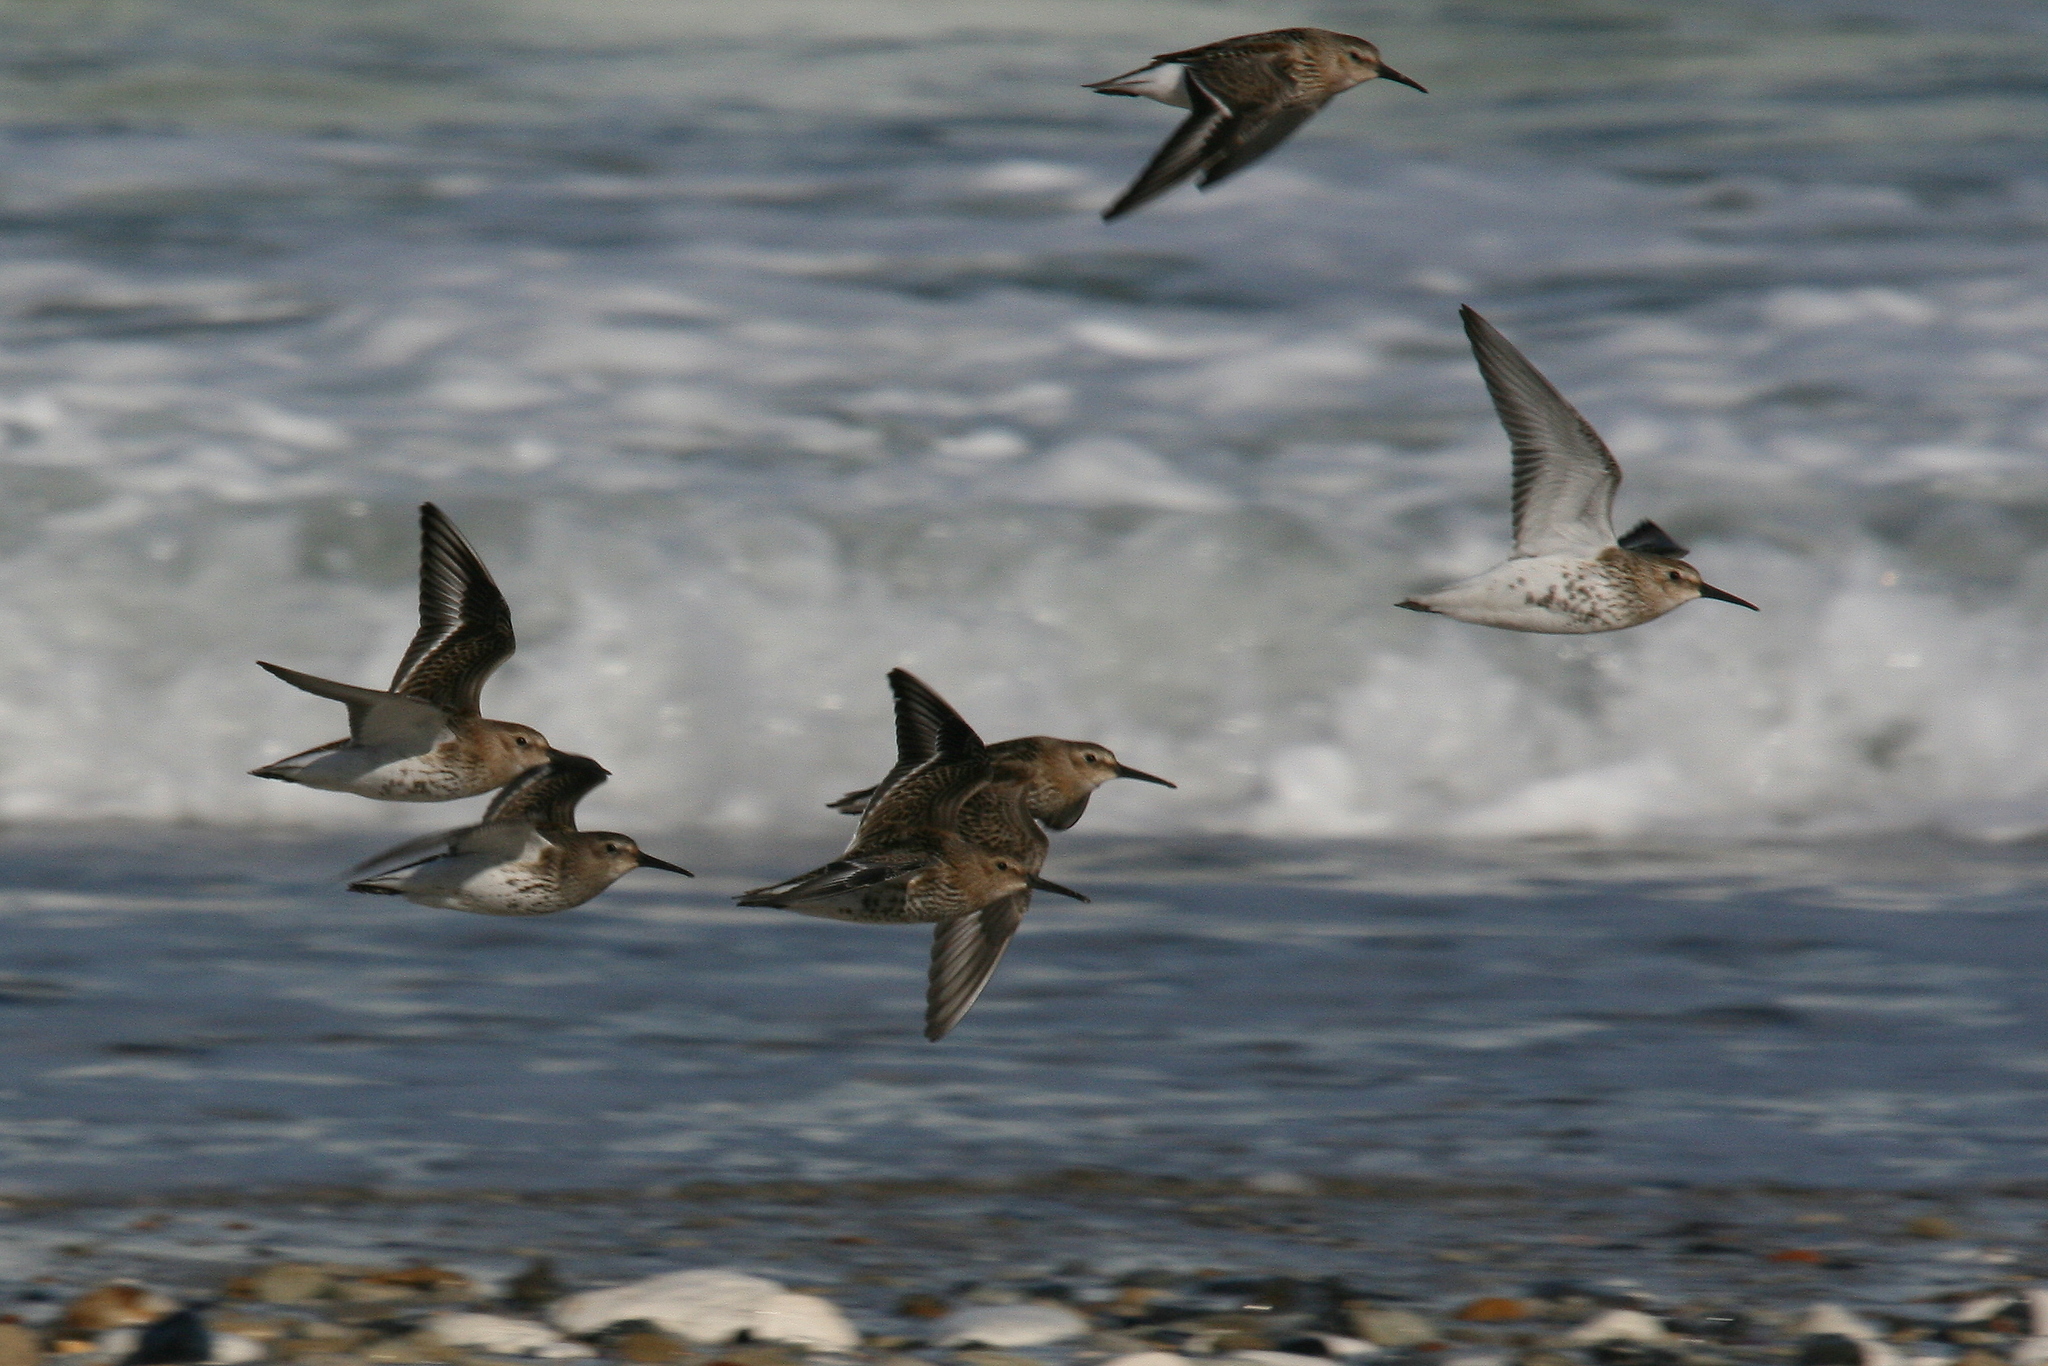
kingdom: Animalia
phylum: Chordata
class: Aves
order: Charadriiformes
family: Scolopacidae
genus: Calidris
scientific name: Calidris alpina
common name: Dunlin
